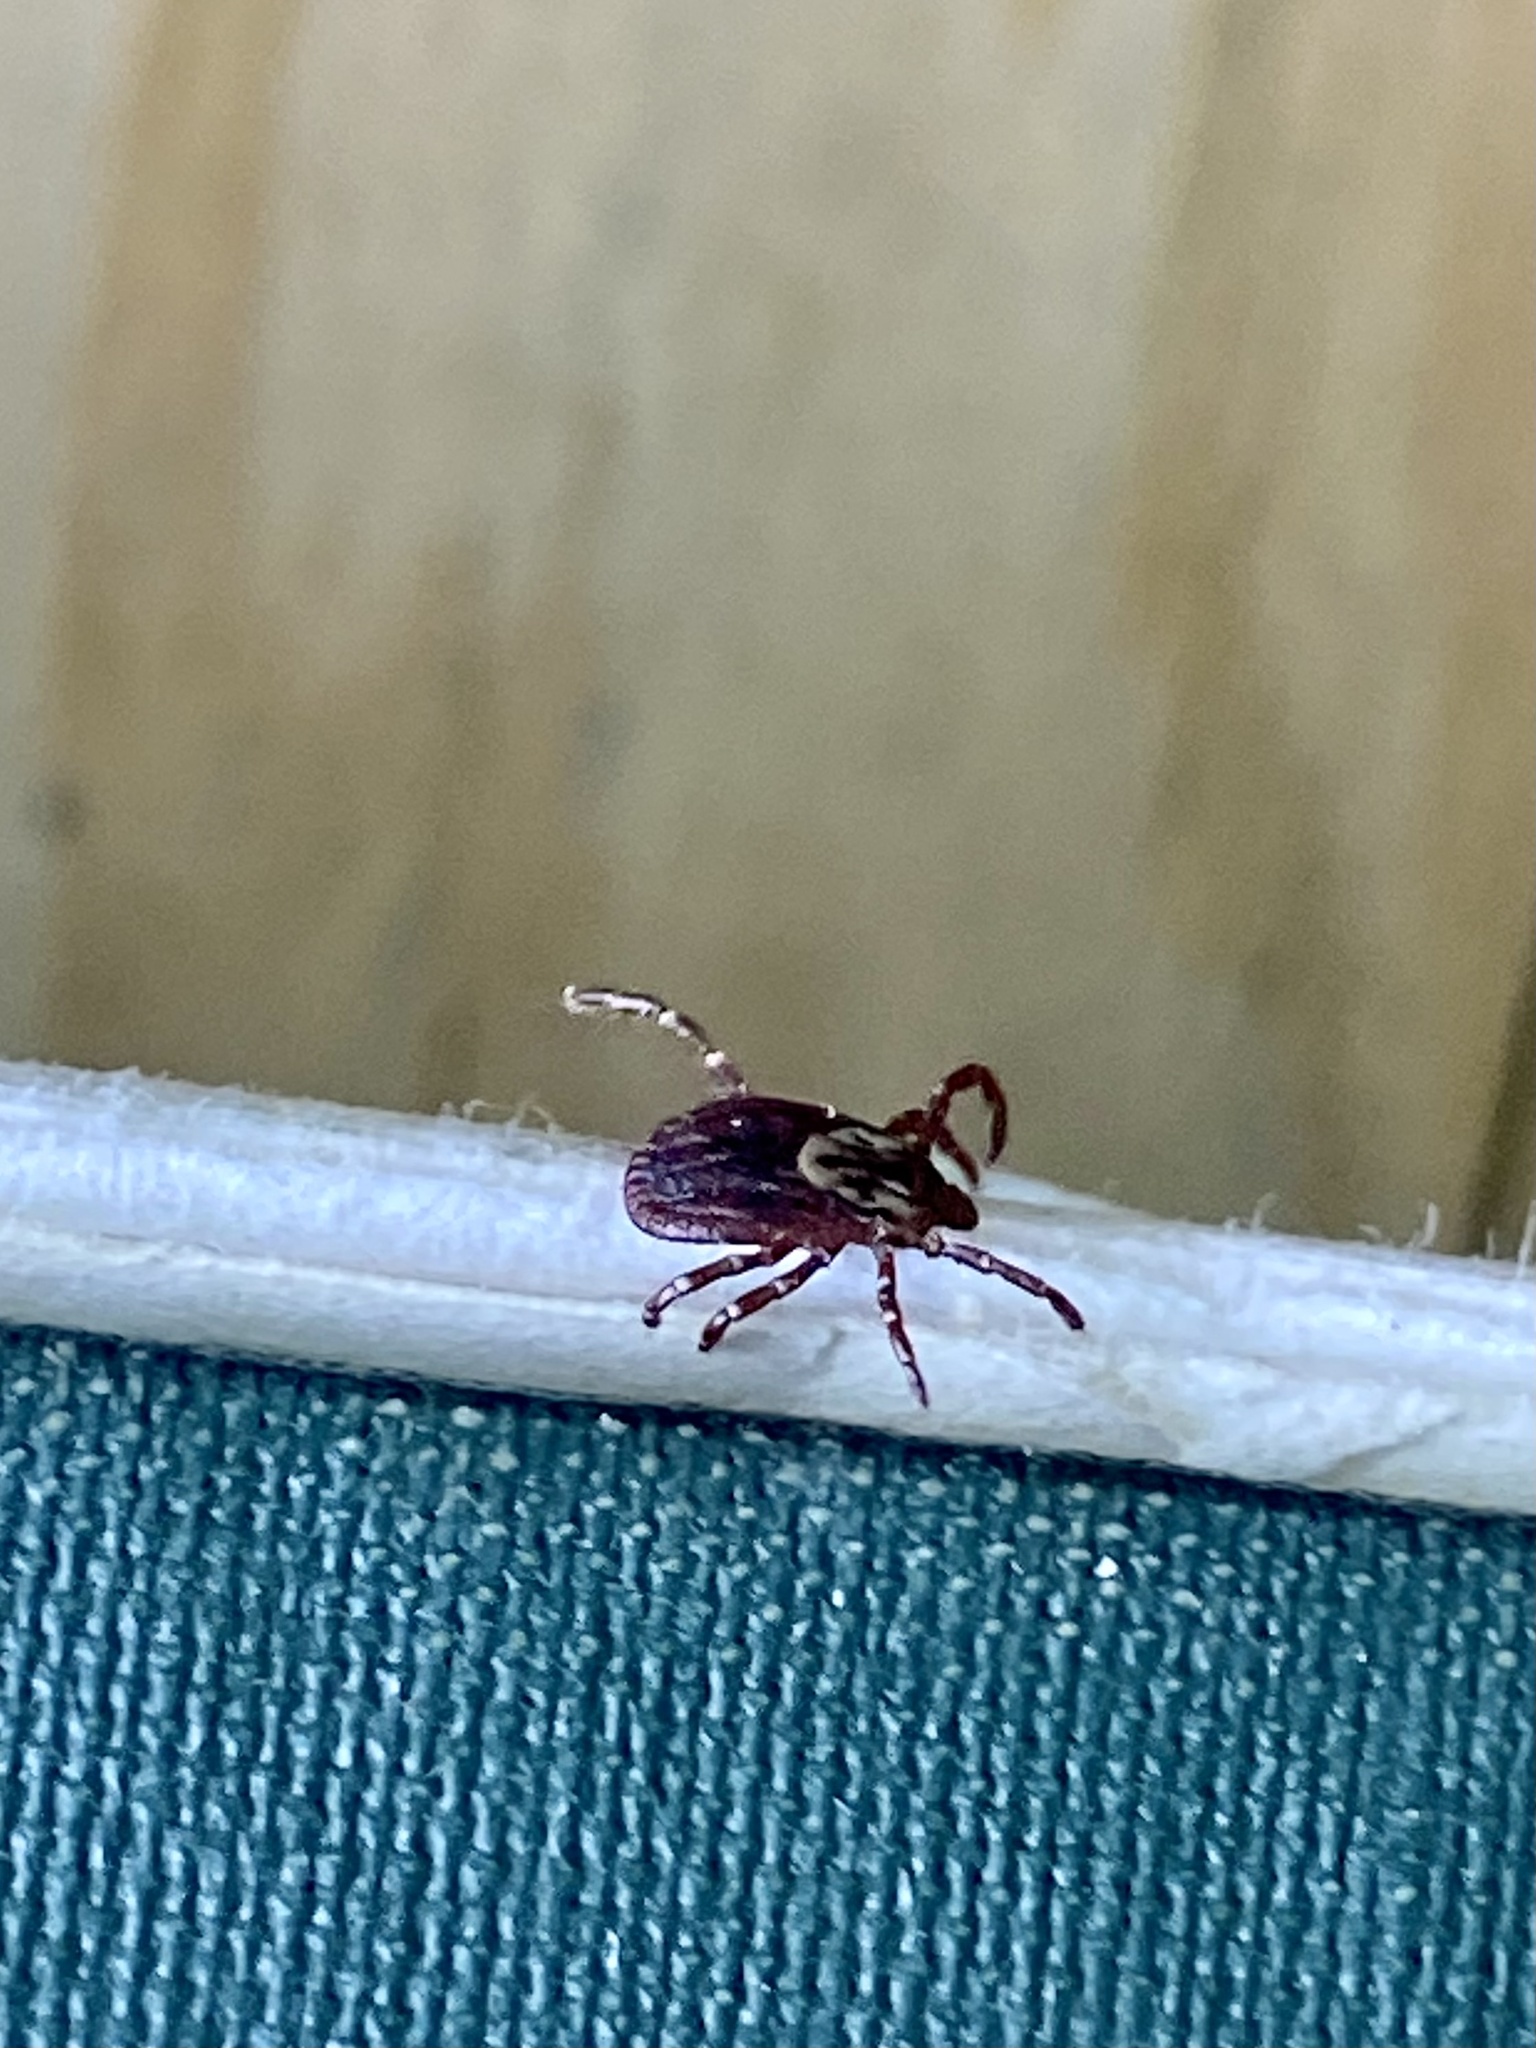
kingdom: Animalia
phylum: Arthropoda
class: Arachnida
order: Ixodida
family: Ixodidae
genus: Dermacentor
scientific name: Dermacentor variabilis
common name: American dog tick
